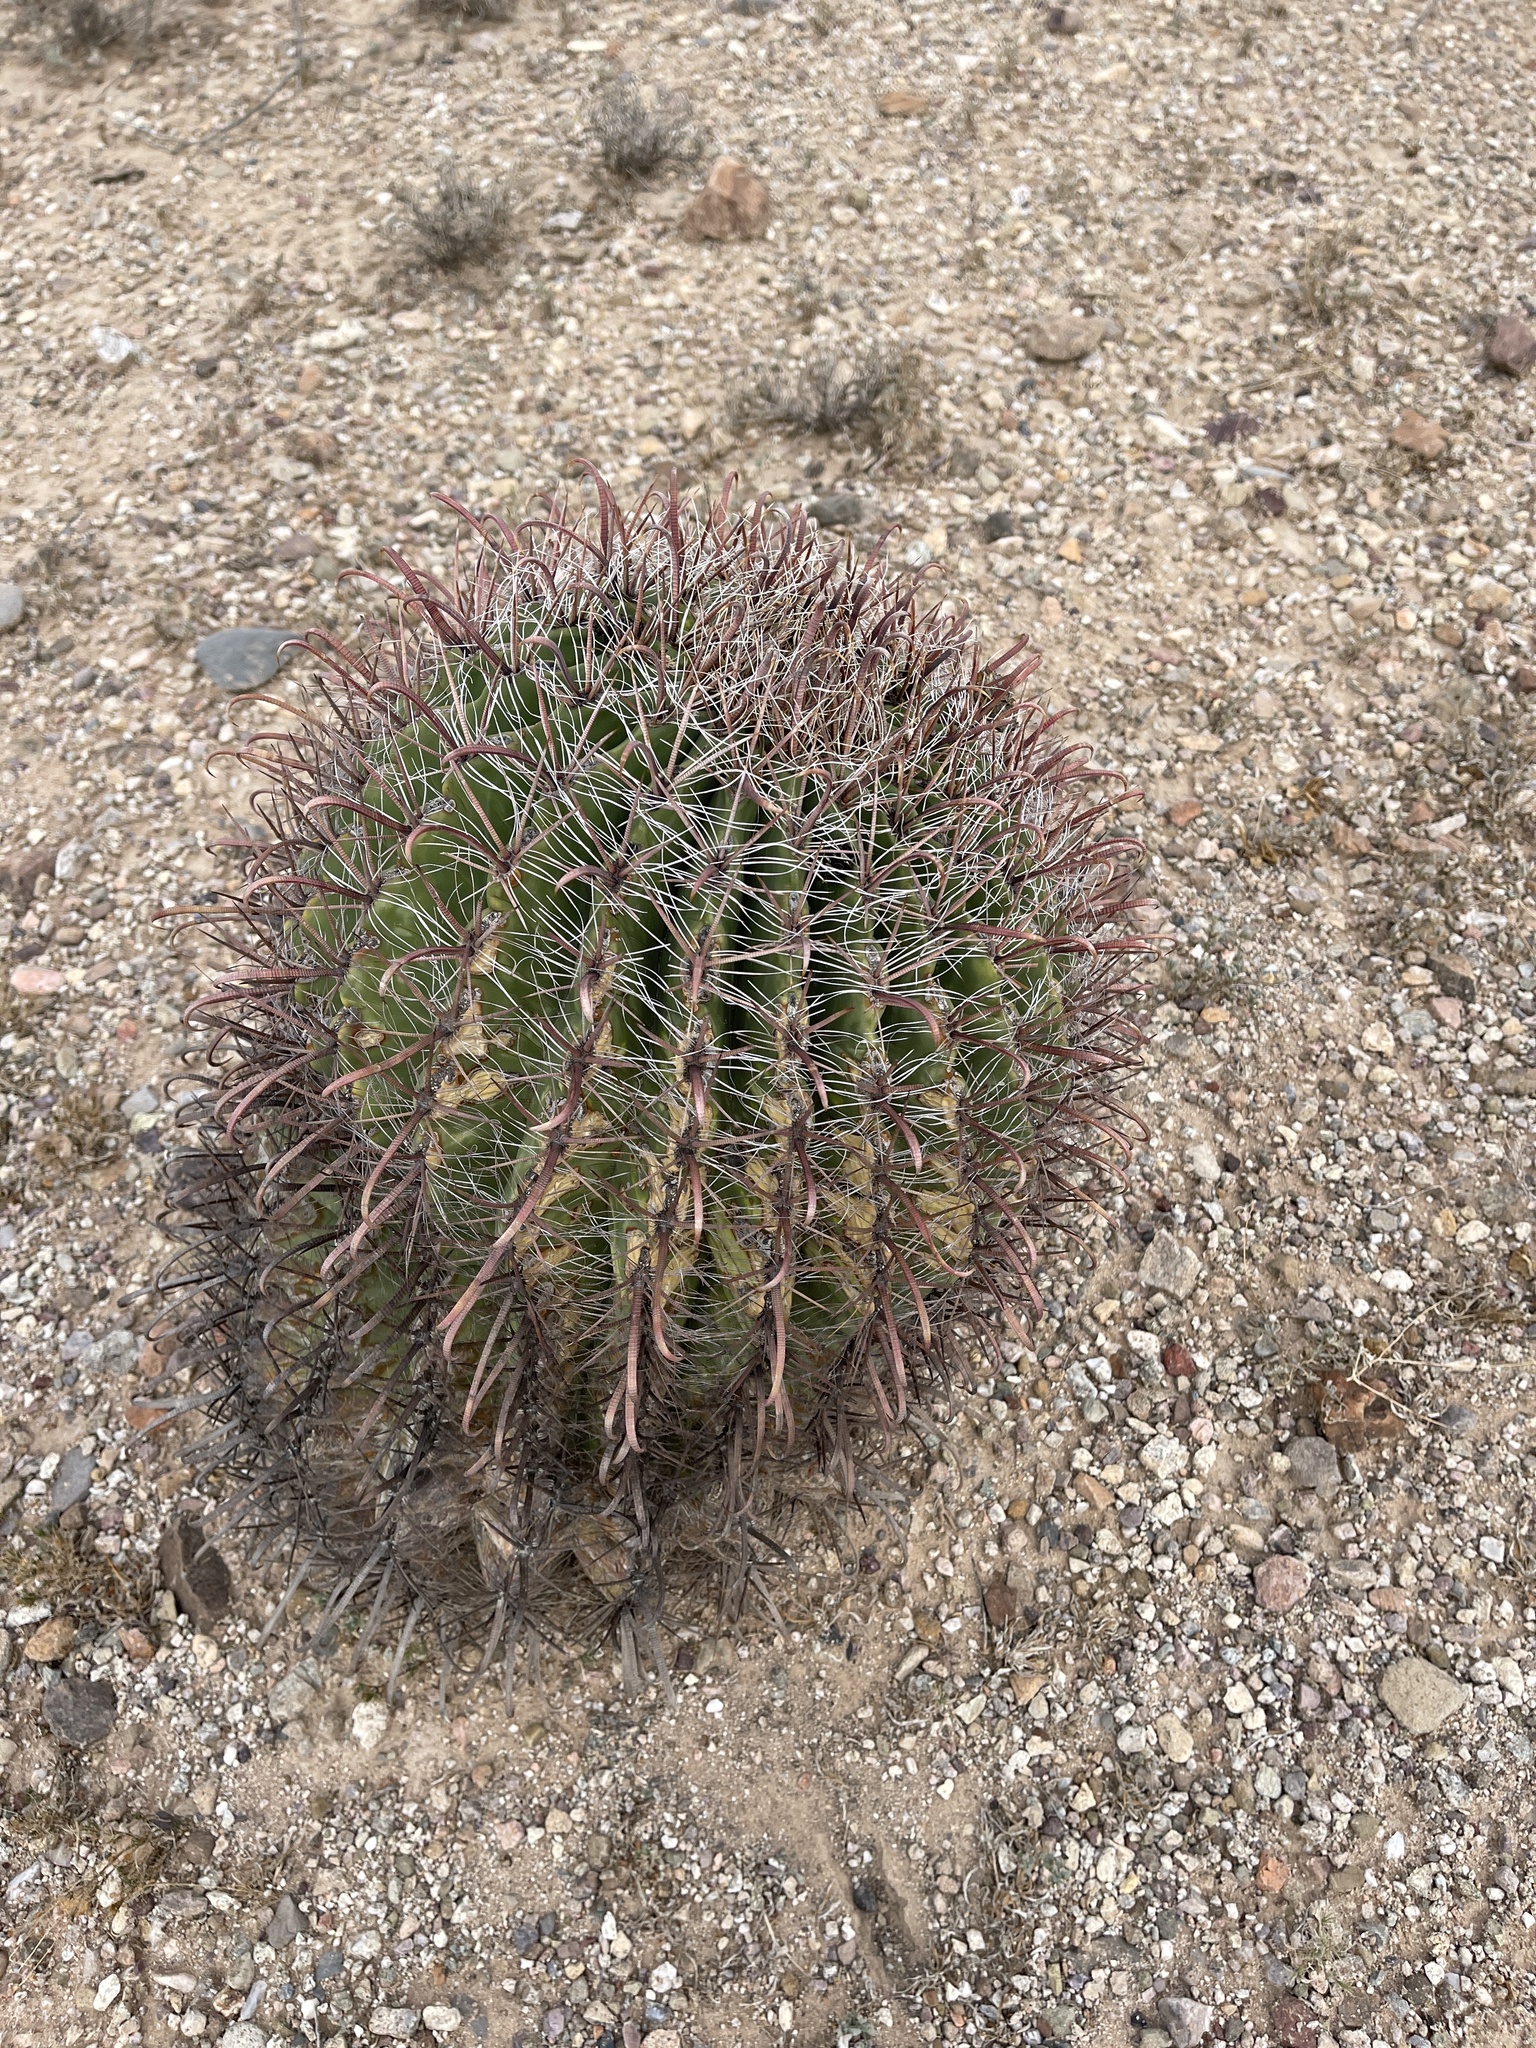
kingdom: Plantae
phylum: Tracheophyta
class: Magnoliopsida
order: Caryophyllales
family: Cactaceae
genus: Ferocactus
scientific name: Ferocactus wislizeni
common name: Candy barrel cactus
